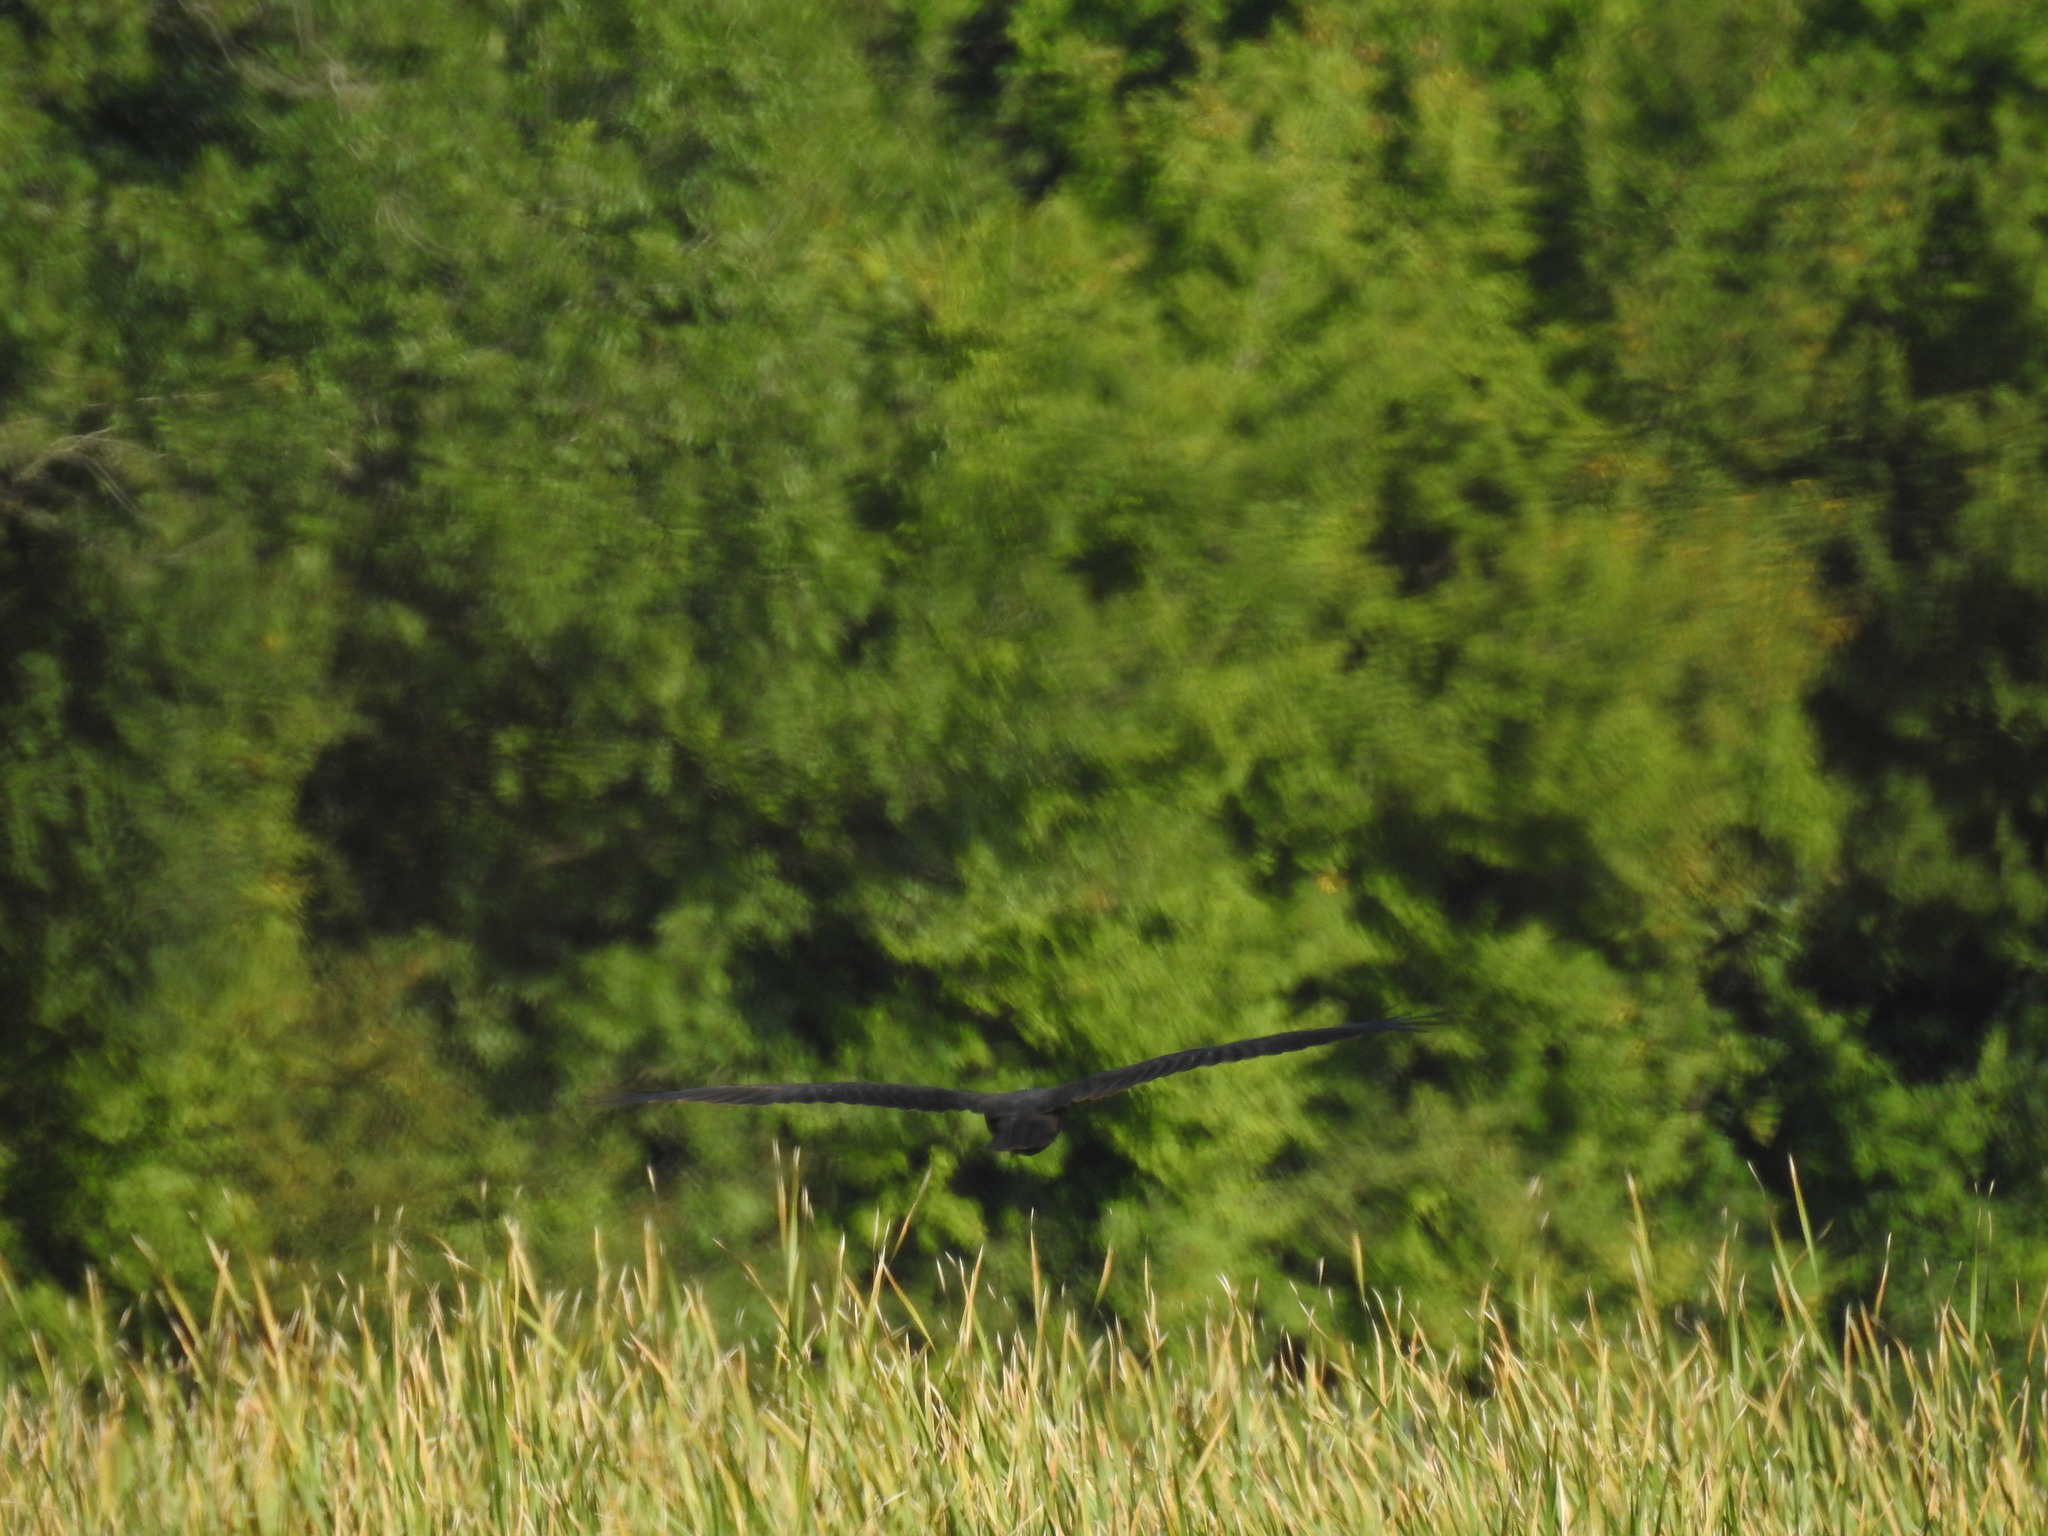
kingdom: Animalia
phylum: Chordata
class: Aves
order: Accipitriformes
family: Accipitridae
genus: Circus
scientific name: Circus aeruginosus
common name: Western marsh harrier
